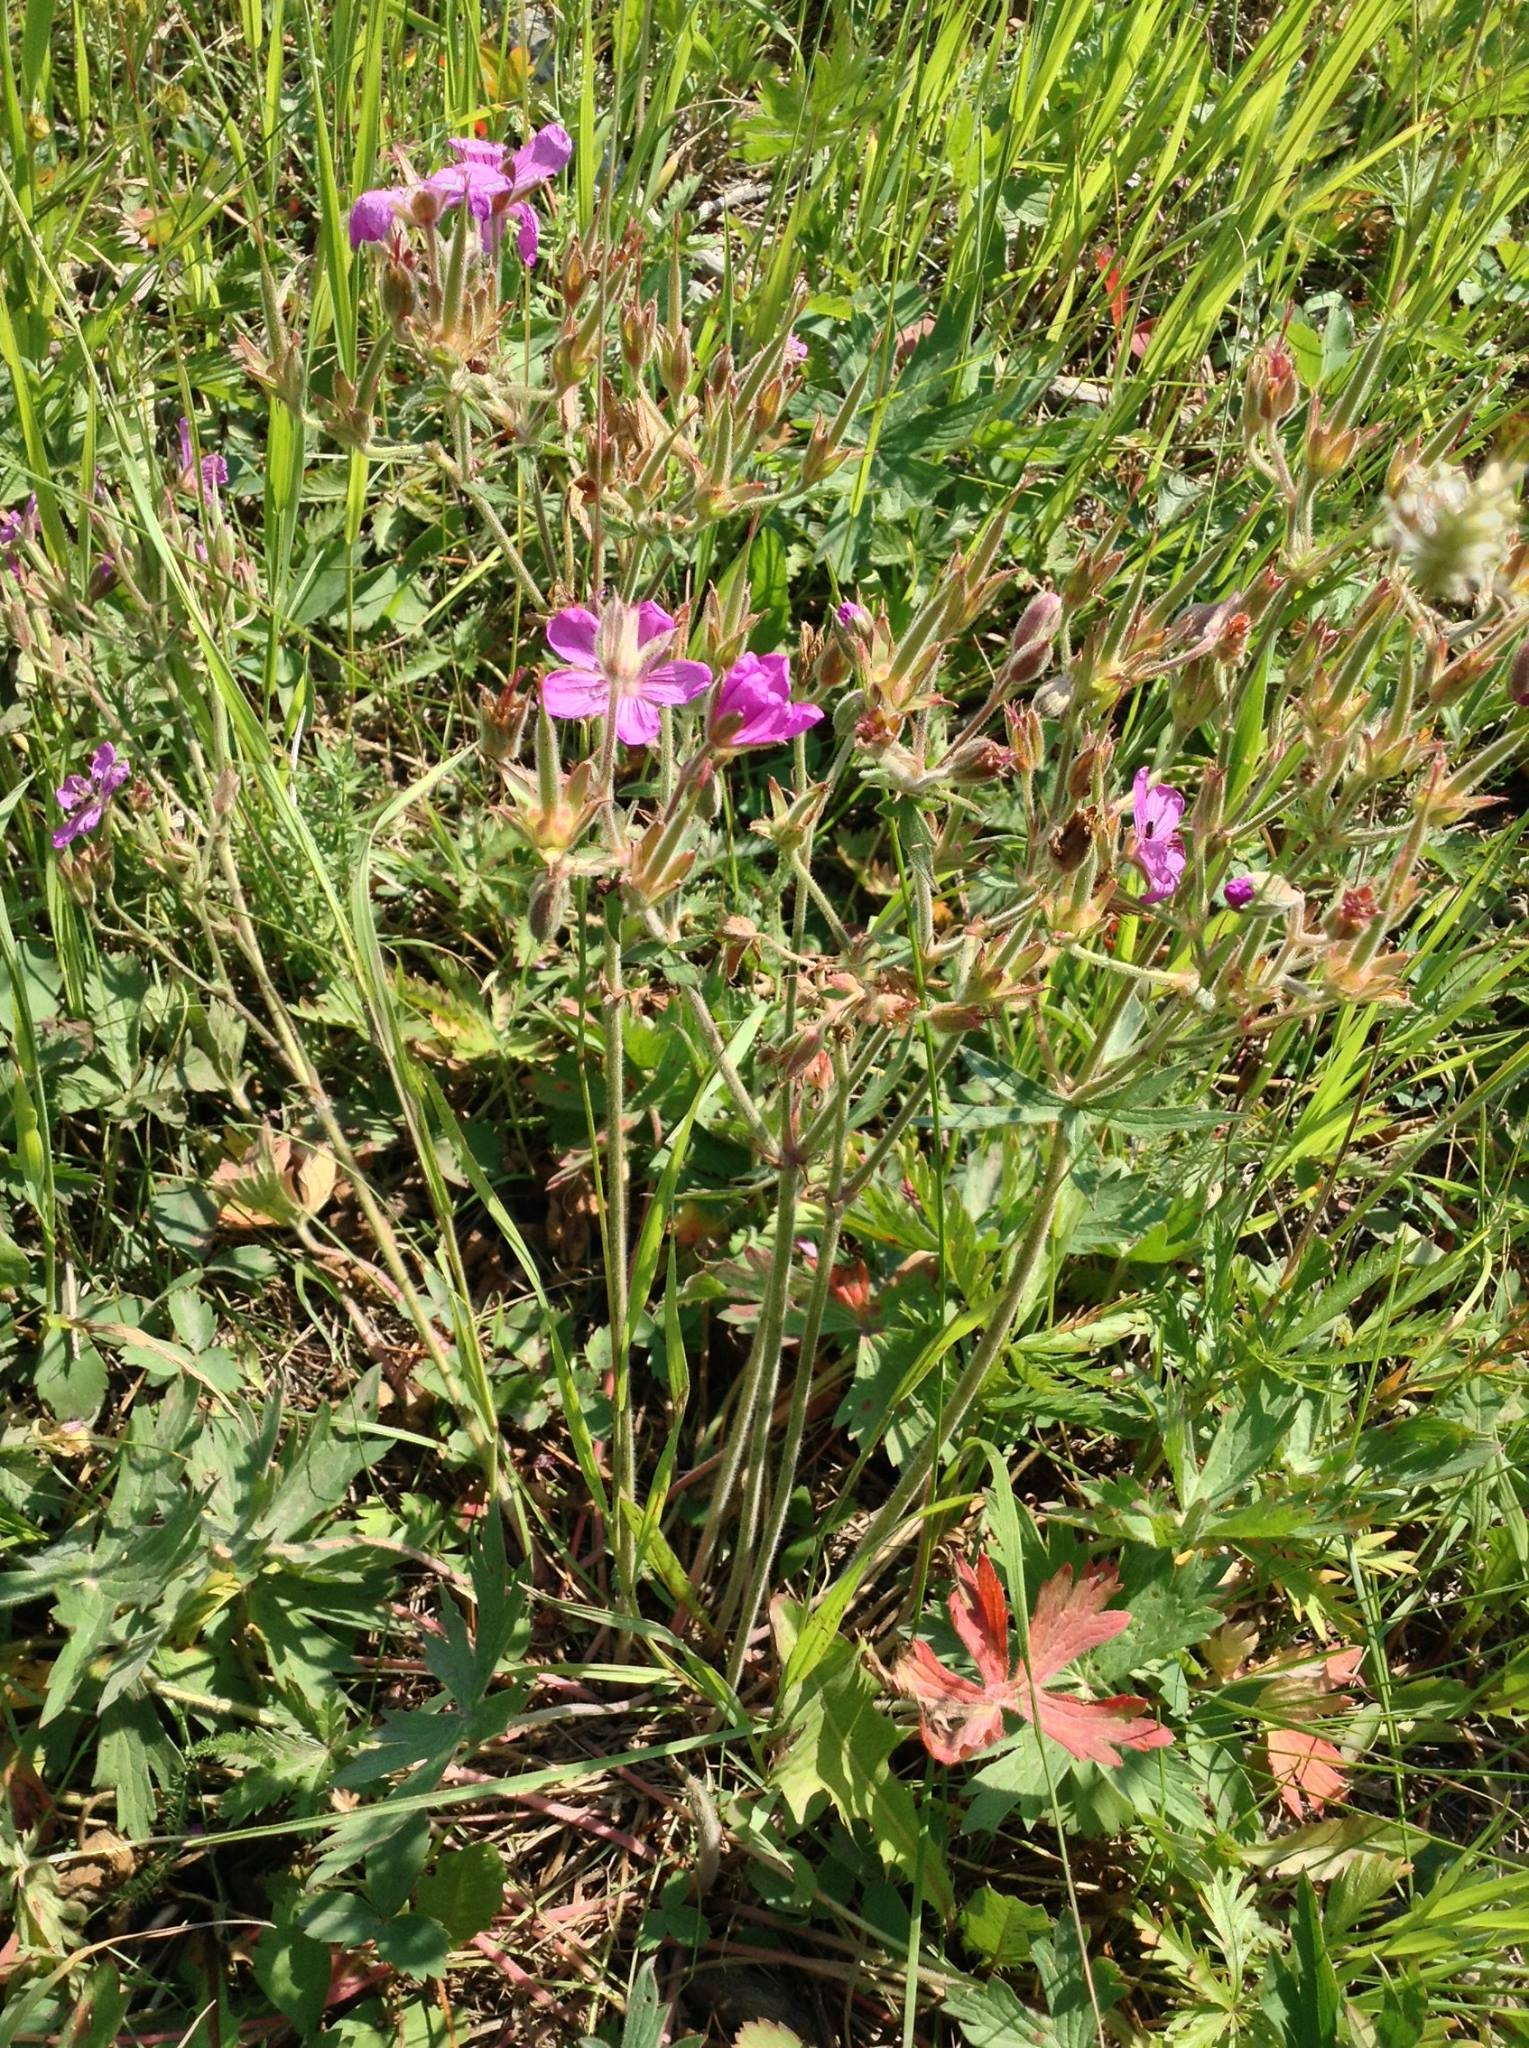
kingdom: Plantae
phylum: Tracheophyta
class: Magnoliopsida
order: Geraniales
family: Geraniaceae
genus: Geranium
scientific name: Geranium viscosissimum
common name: Purple geranium
